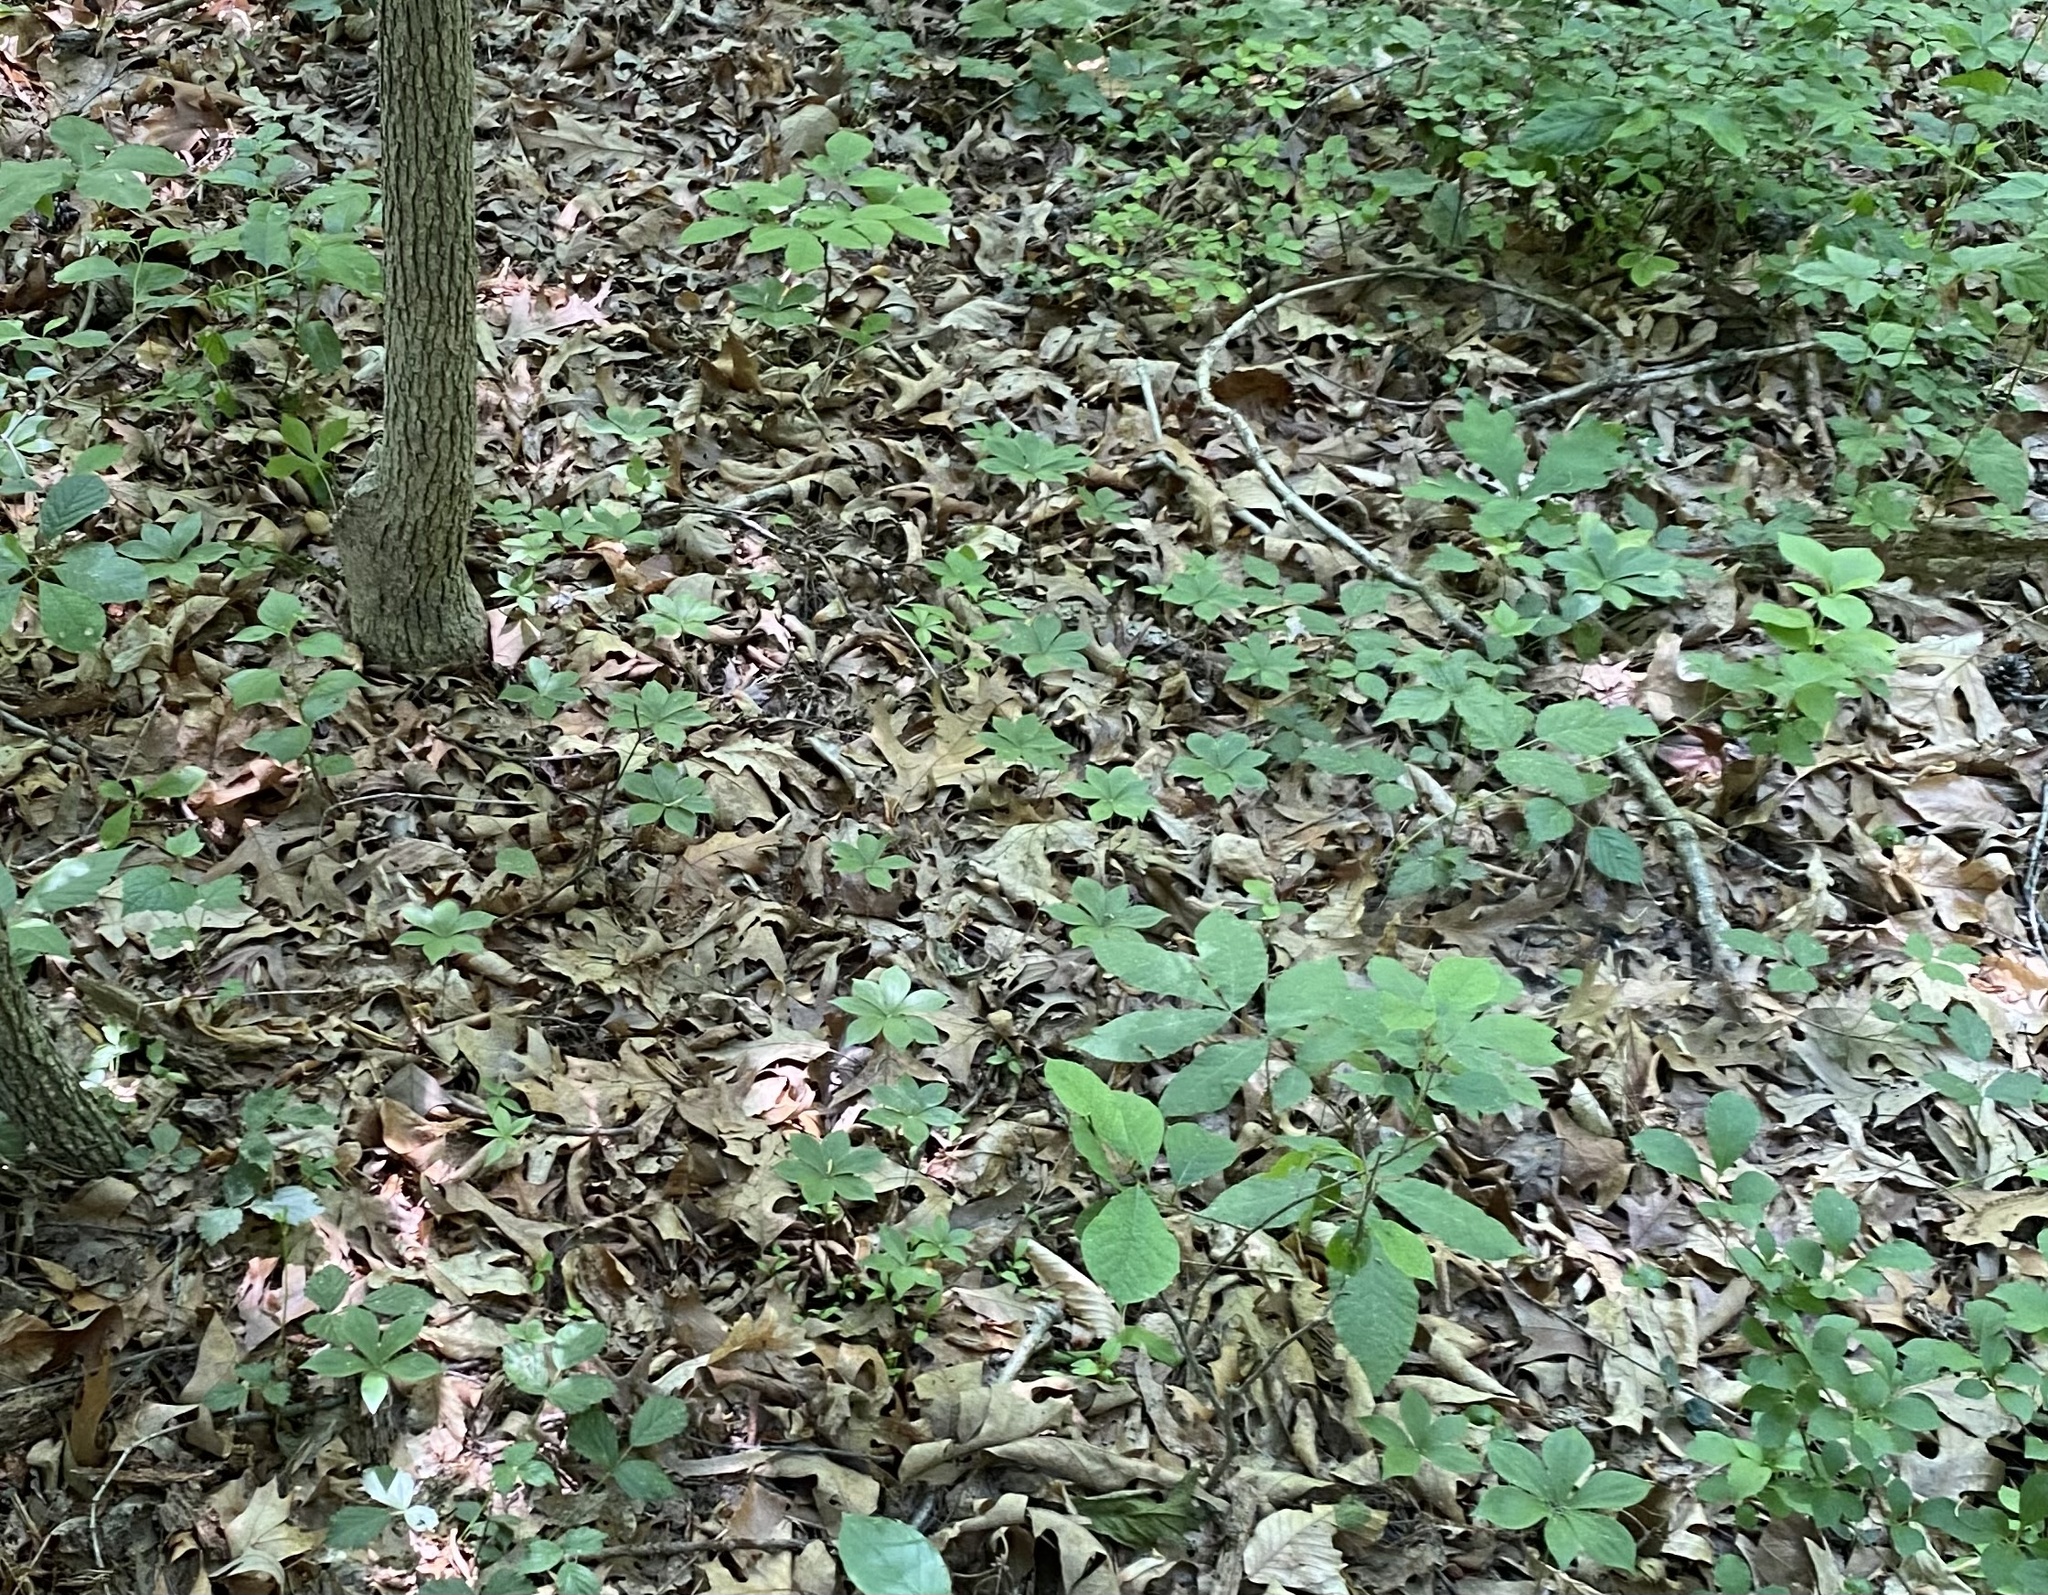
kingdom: Plantae
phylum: Tracheophyta
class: Liliopsida
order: Liliales
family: Liliaceae
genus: Medeola
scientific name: Medeola virginiana
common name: Indian cucumber-root
